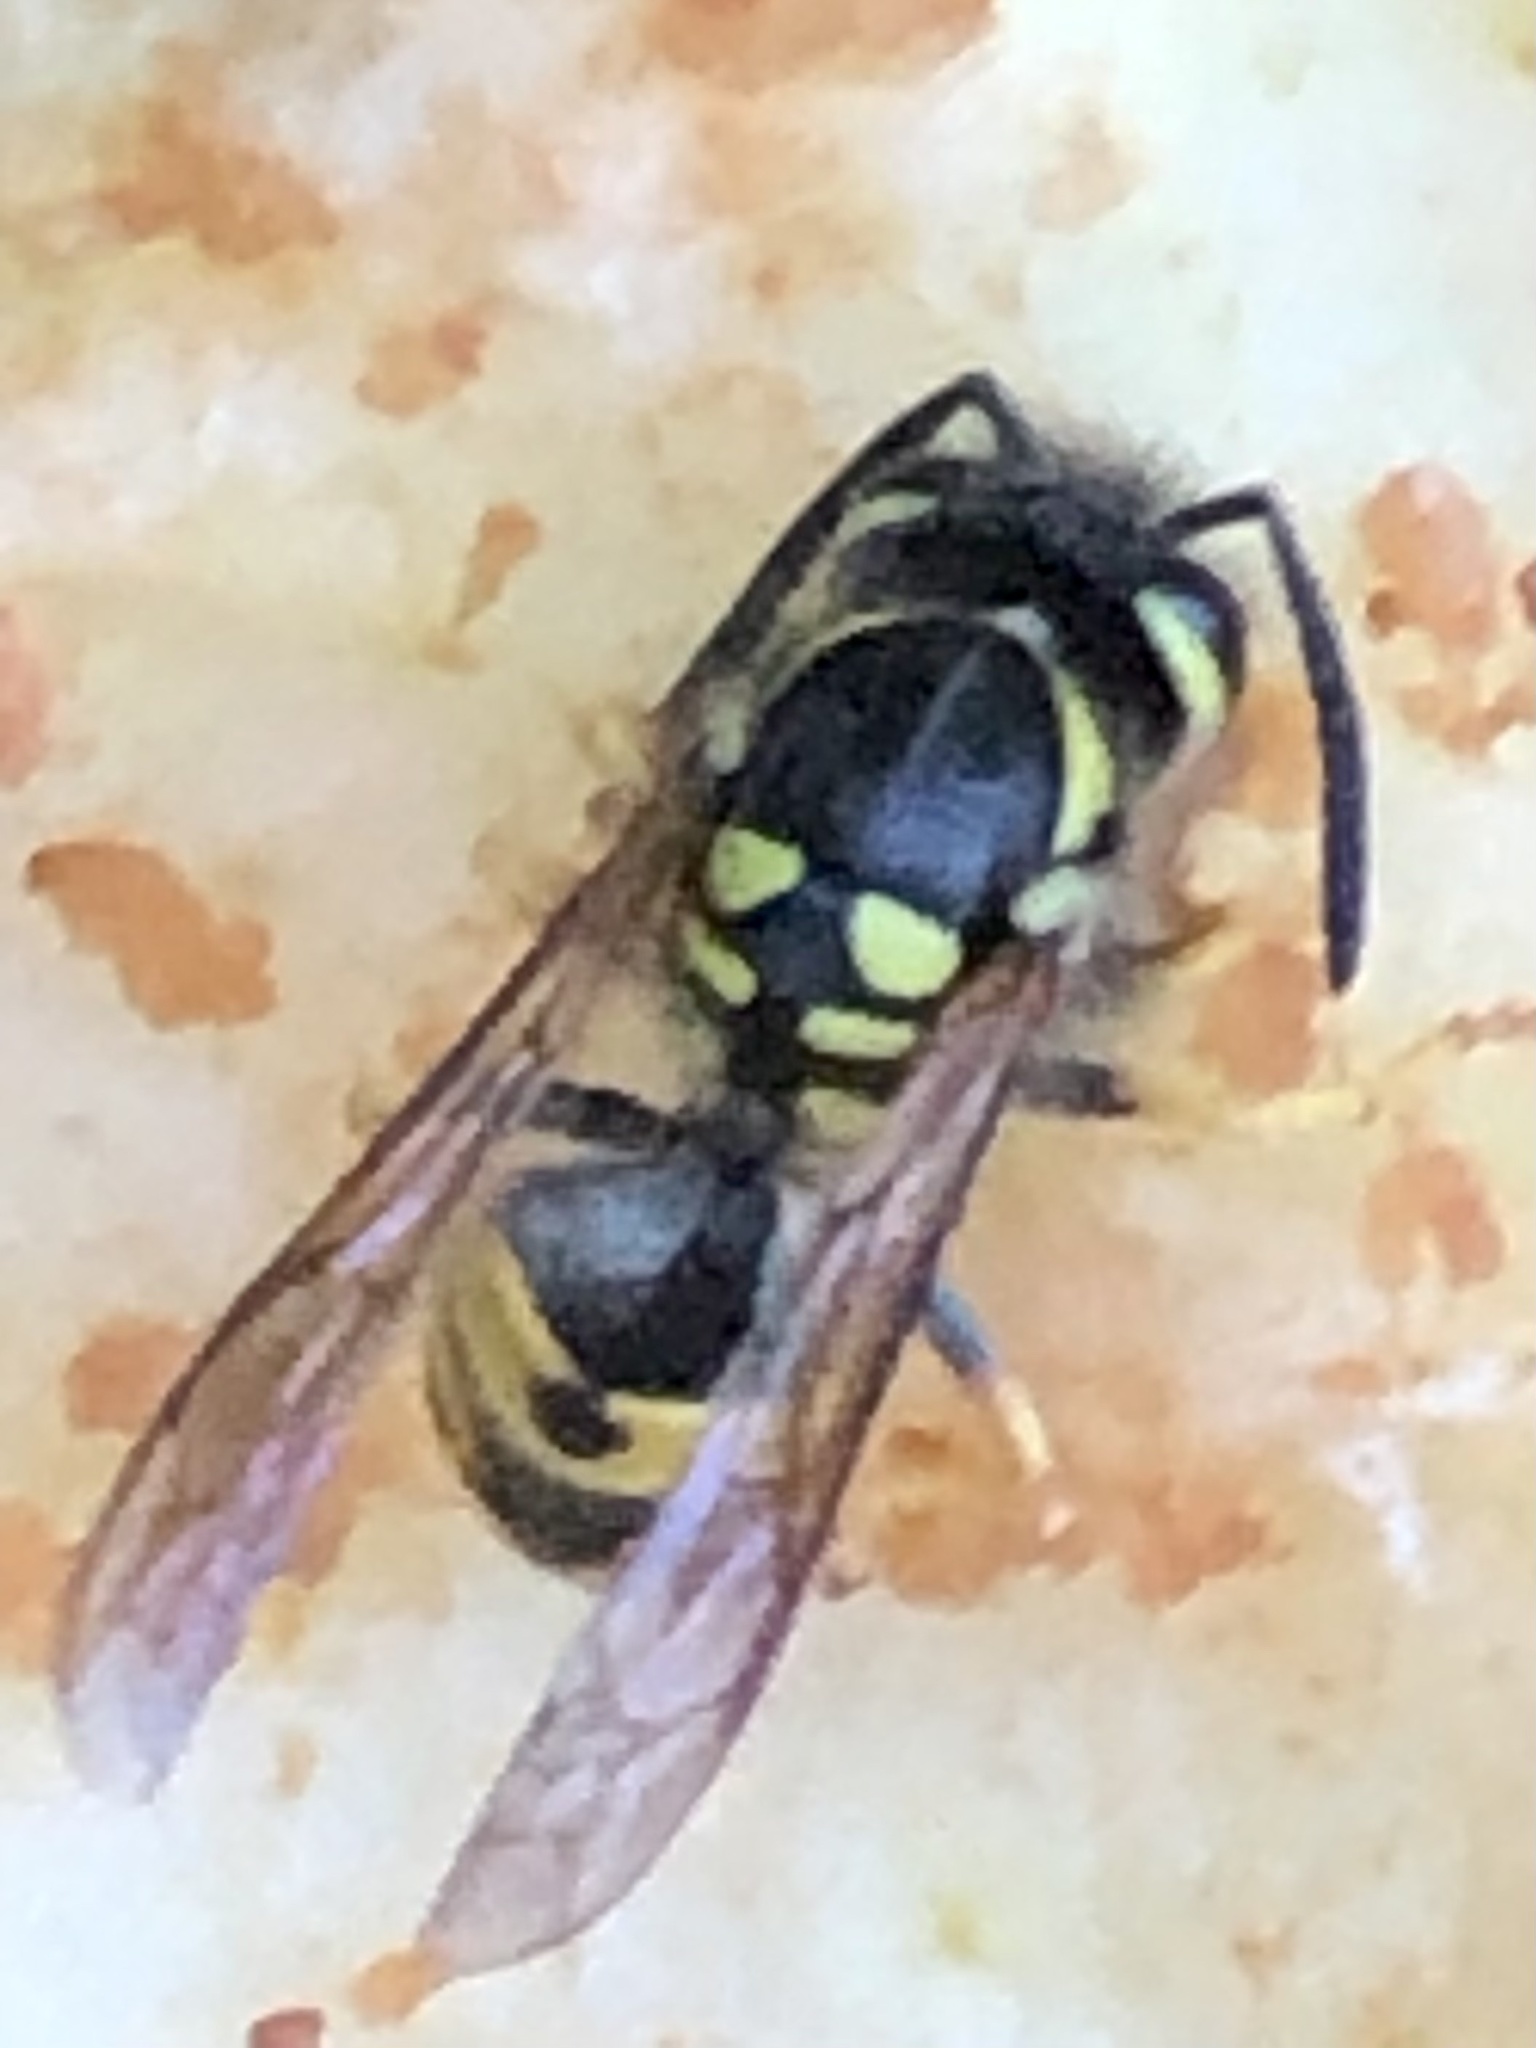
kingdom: Animalia
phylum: Arthropoda
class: Insecta
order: Hymenoptera
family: Vespidae
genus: Vespula
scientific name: Vespula germanica
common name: German wasp
